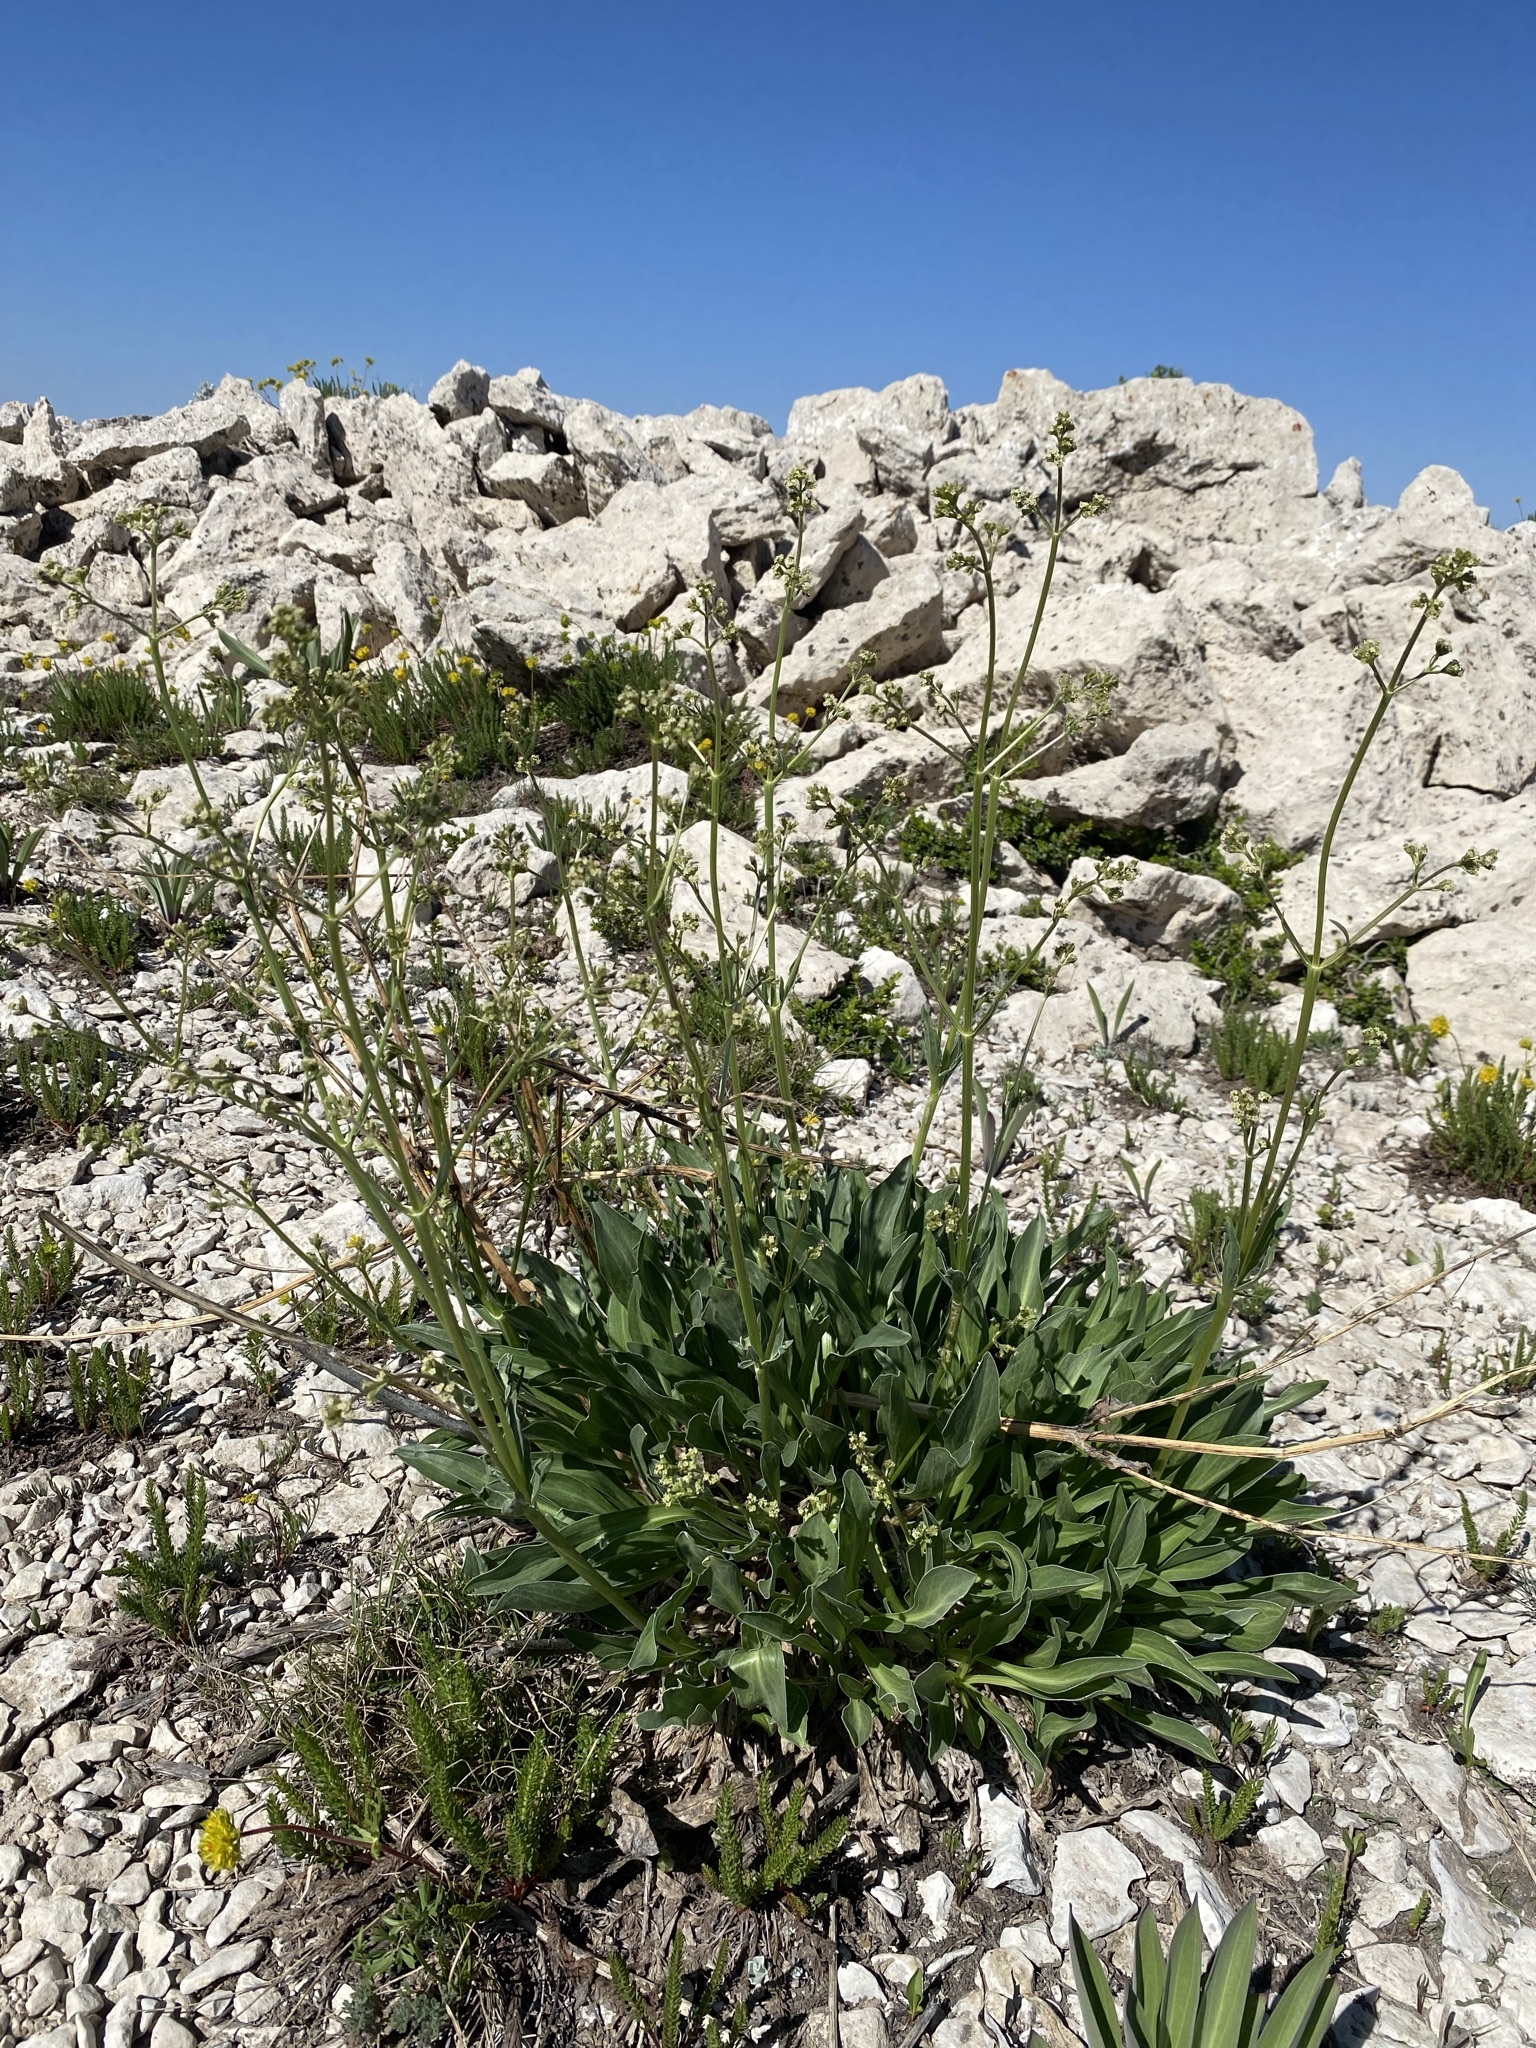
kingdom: Plantae
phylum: Tracheophyta
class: Magnoliopsida
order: Dipsacales
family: Caprifoliaceae
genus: Valeriana
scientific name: Valeriana edulis
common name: Taproot valerian
